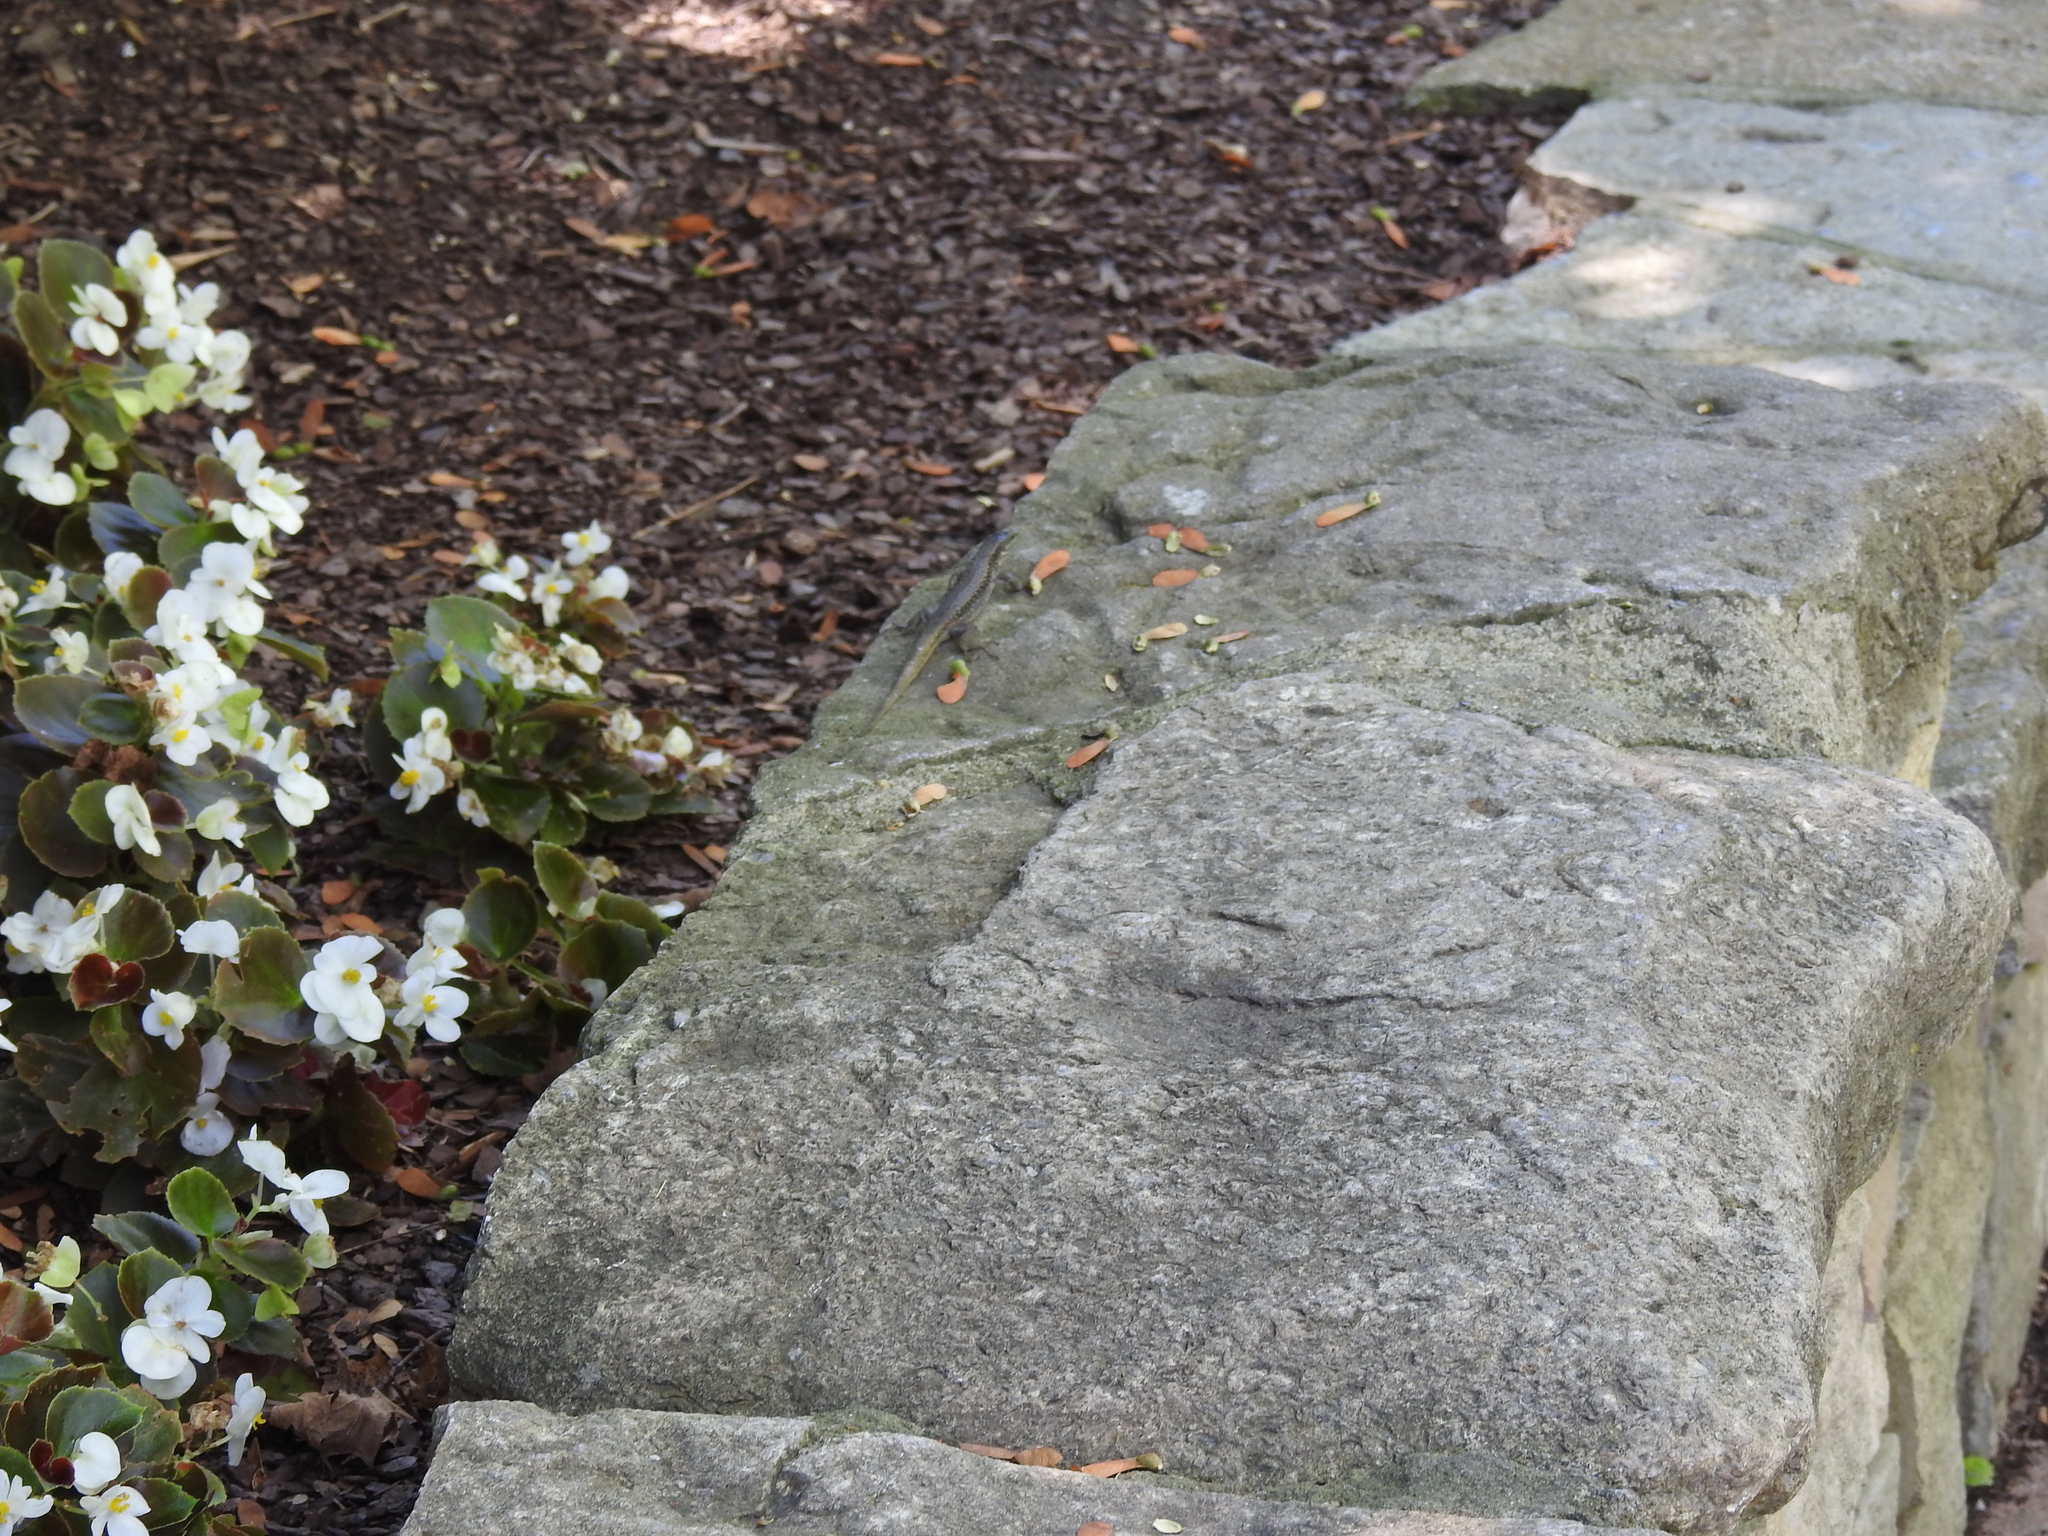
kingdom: Animalia
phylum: Chordata
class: Squamata
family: Lacertidae
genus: Podarcis
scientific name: Podarcis muralis
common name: Common wall lizard
